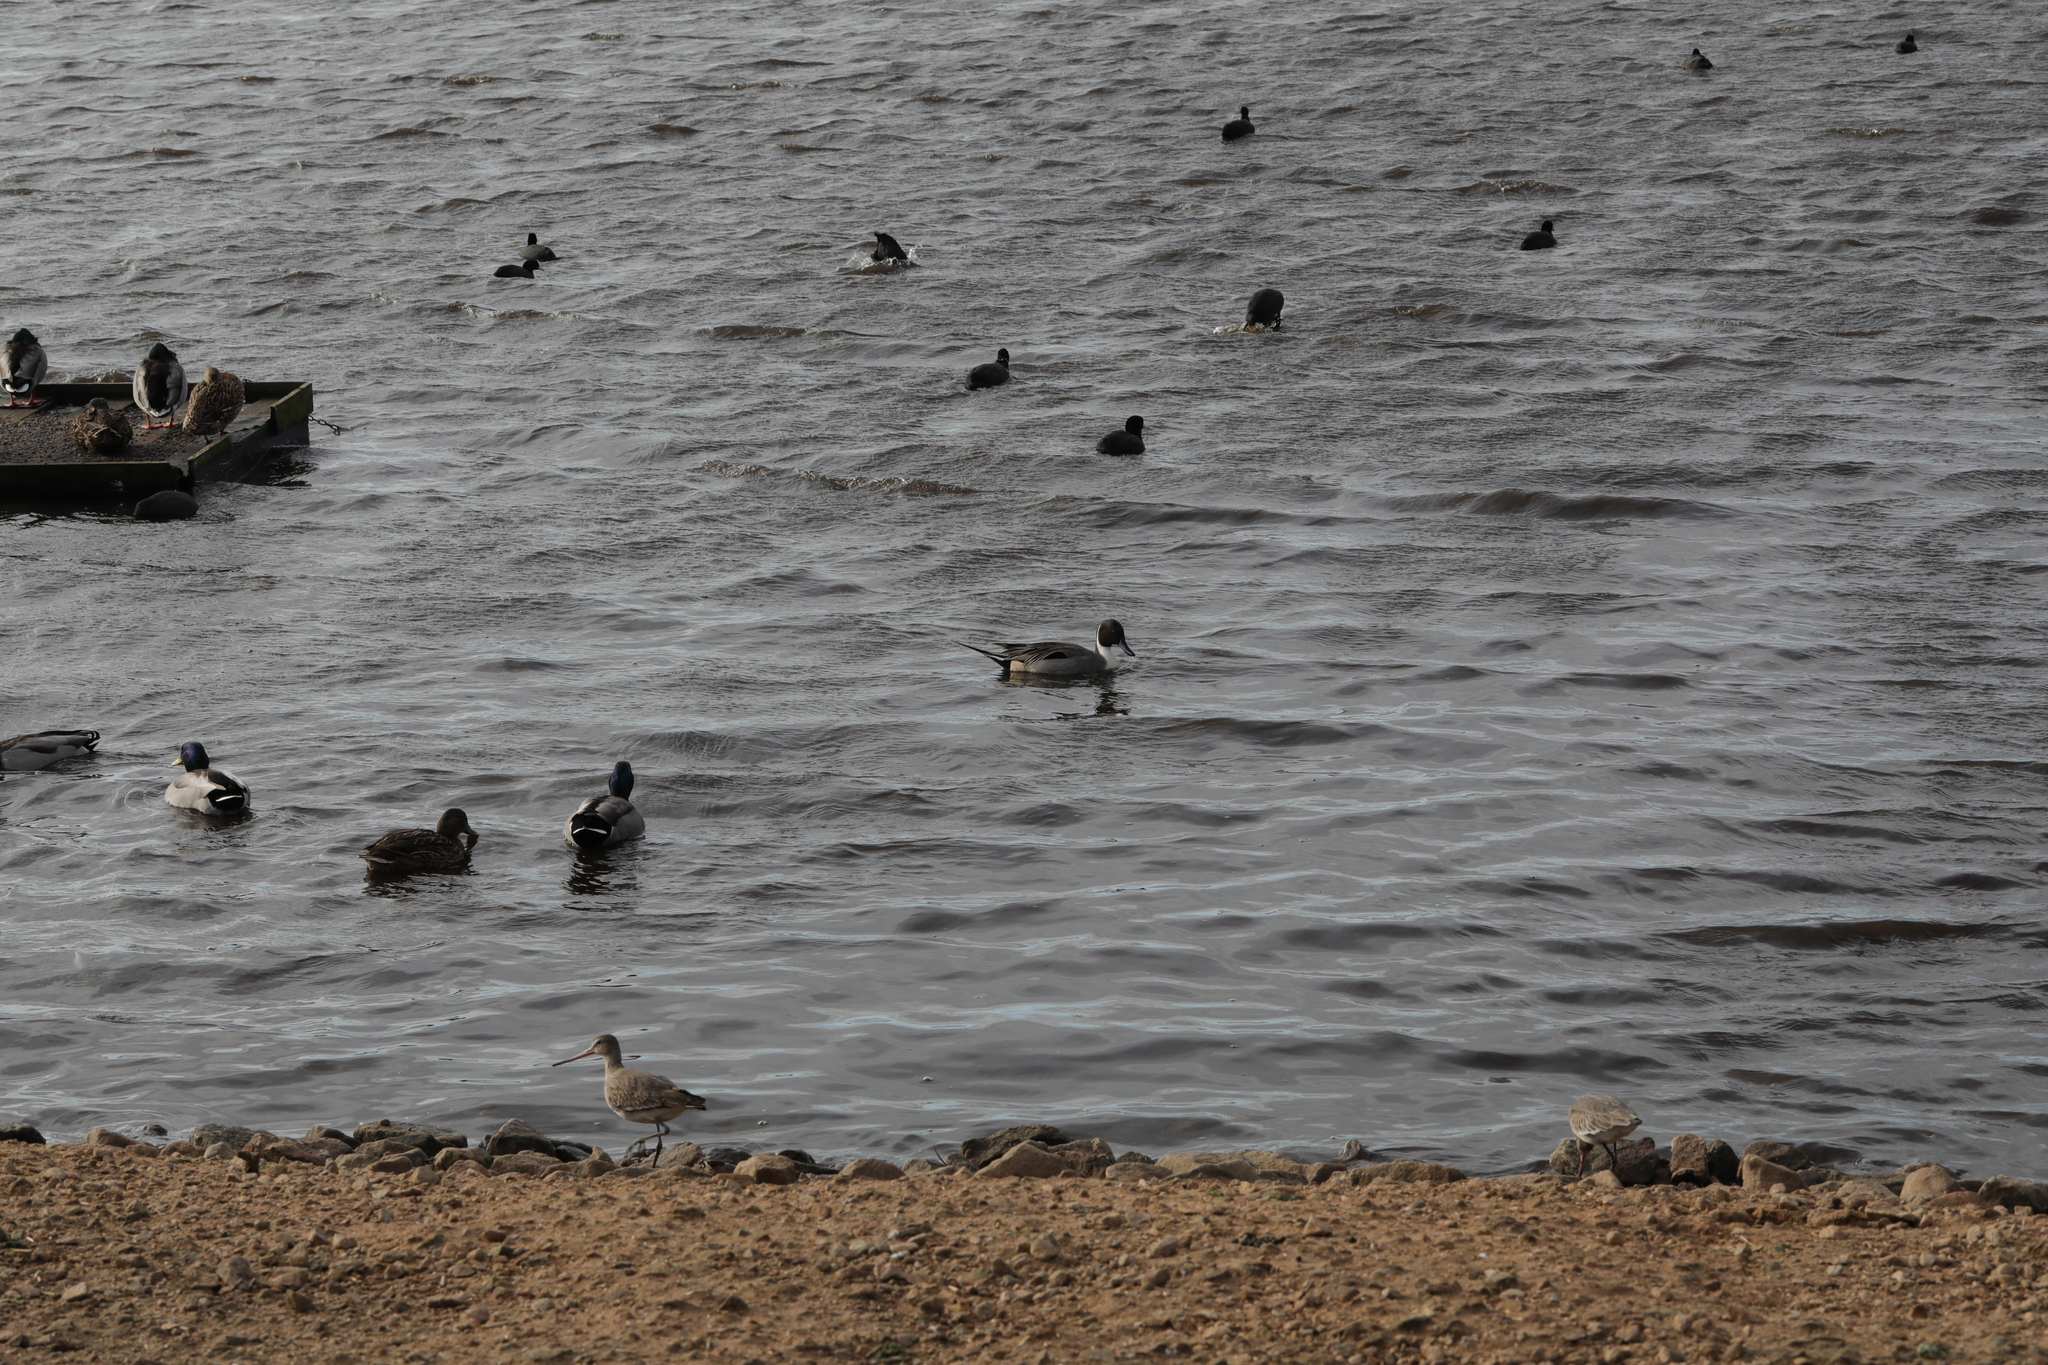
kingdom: Animalia
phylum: Chordata
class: Aves
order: Anseriformes
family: Anatidae
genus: Anas
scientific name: Anas acuta
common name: Northern pintail
